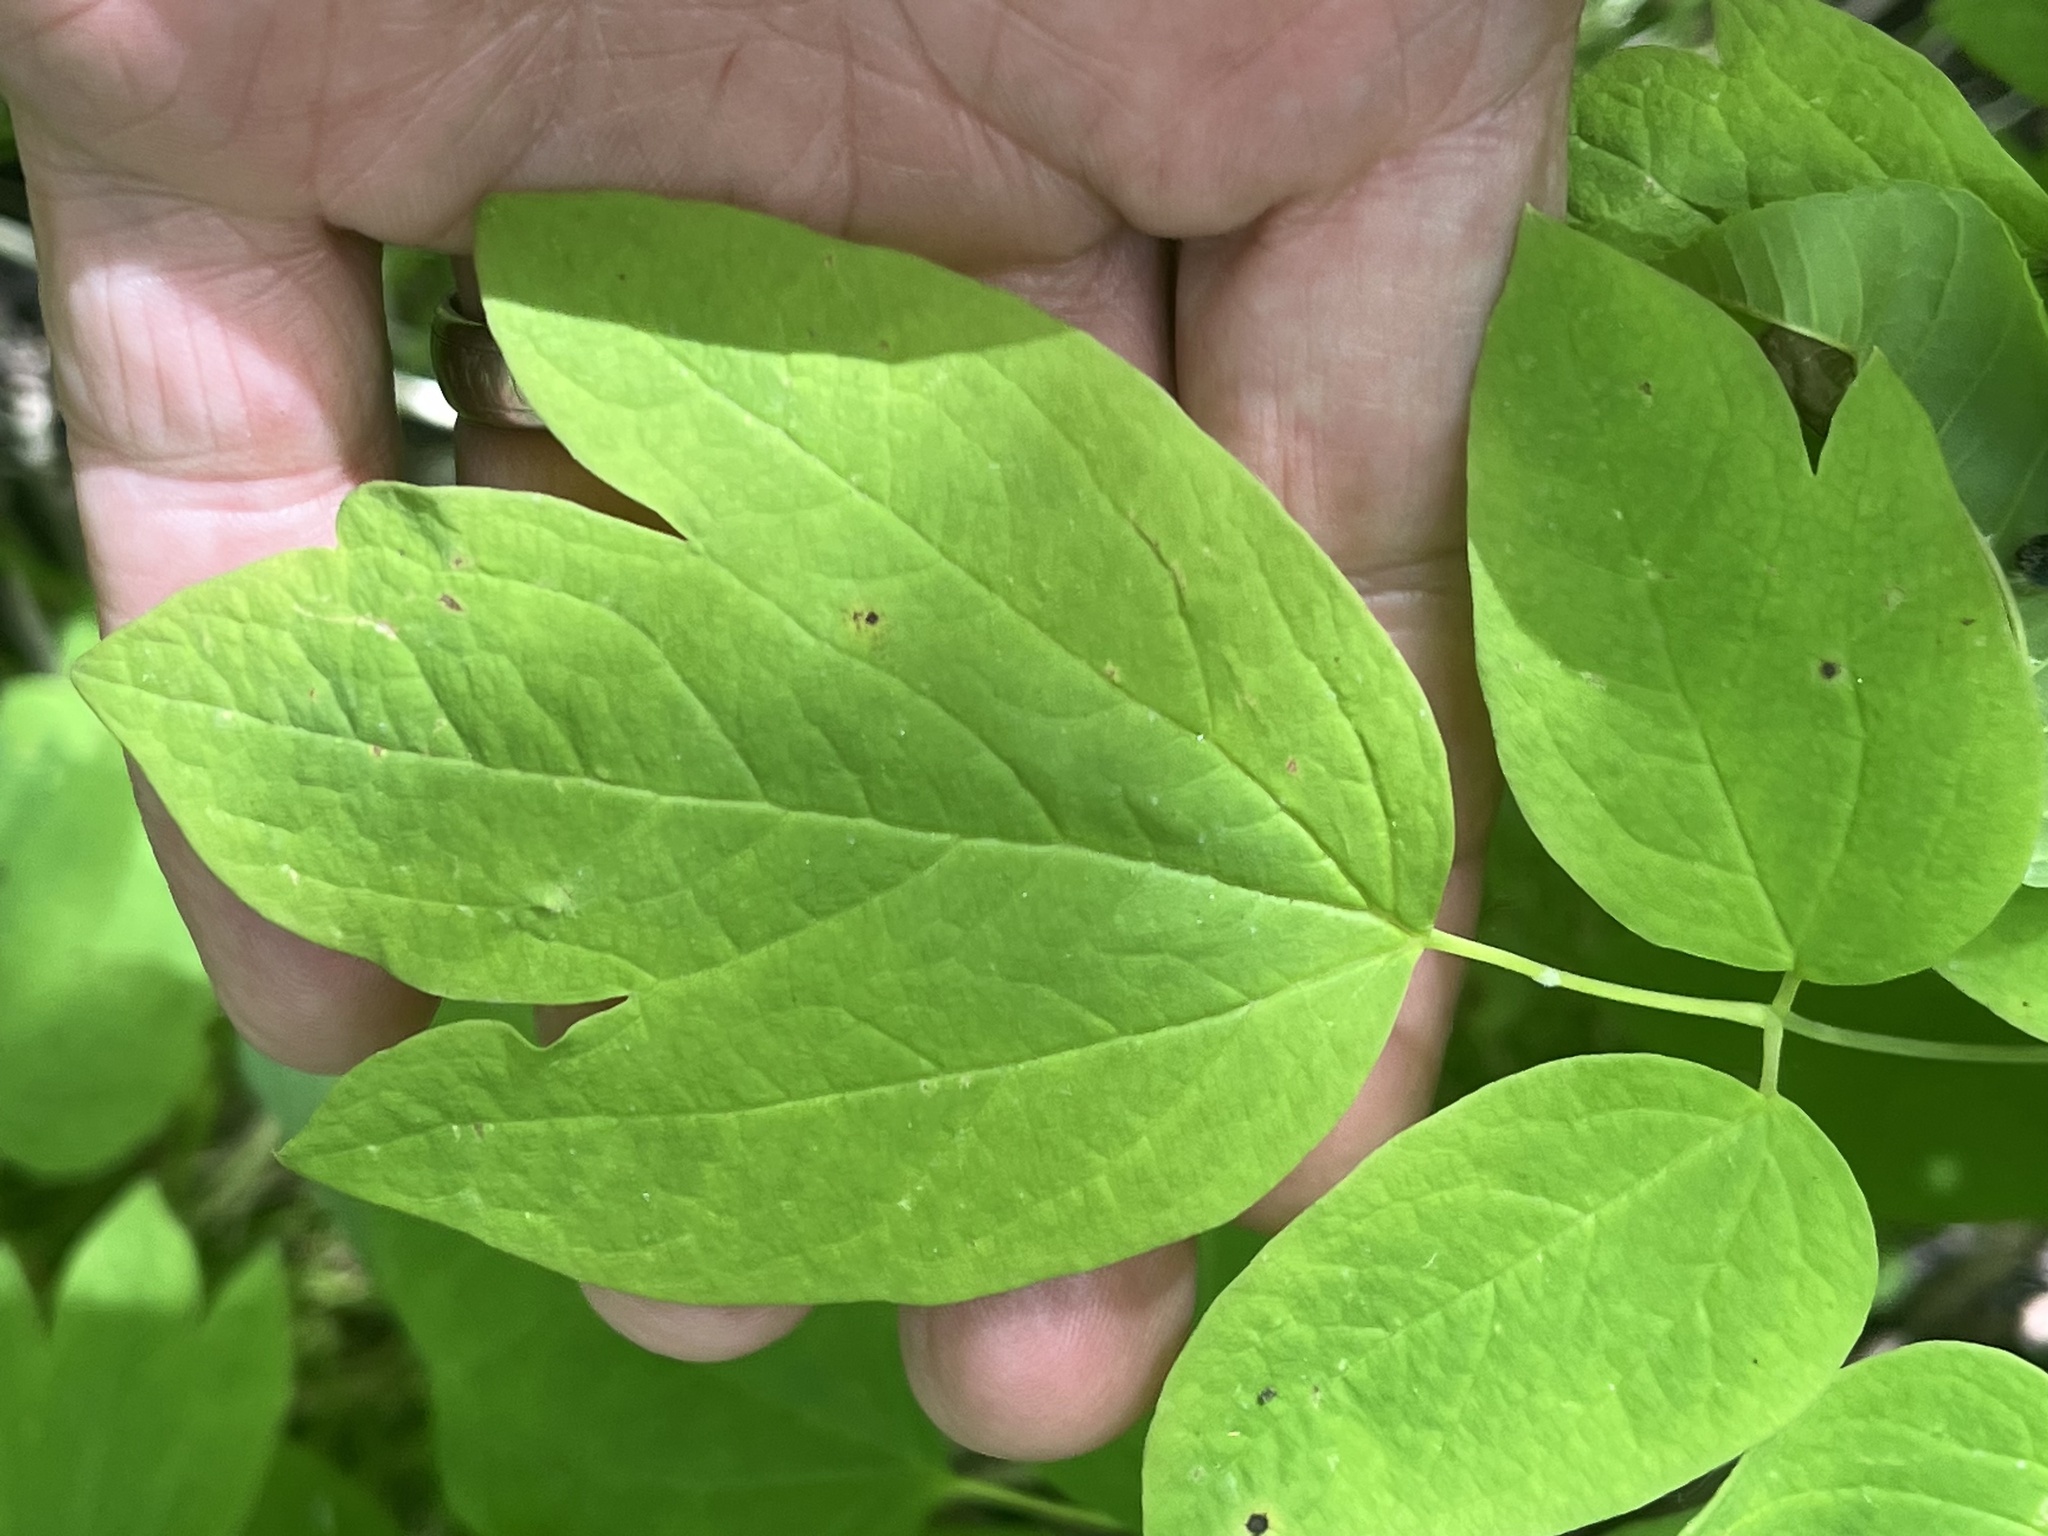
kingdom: Plantae
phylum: Tracheophyta
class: Magnoliopsida
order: Ranunculales
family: Berberidaceae
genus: Caulophyllum
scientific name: Caulophyllum thalictroides
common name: Blue cohosh
